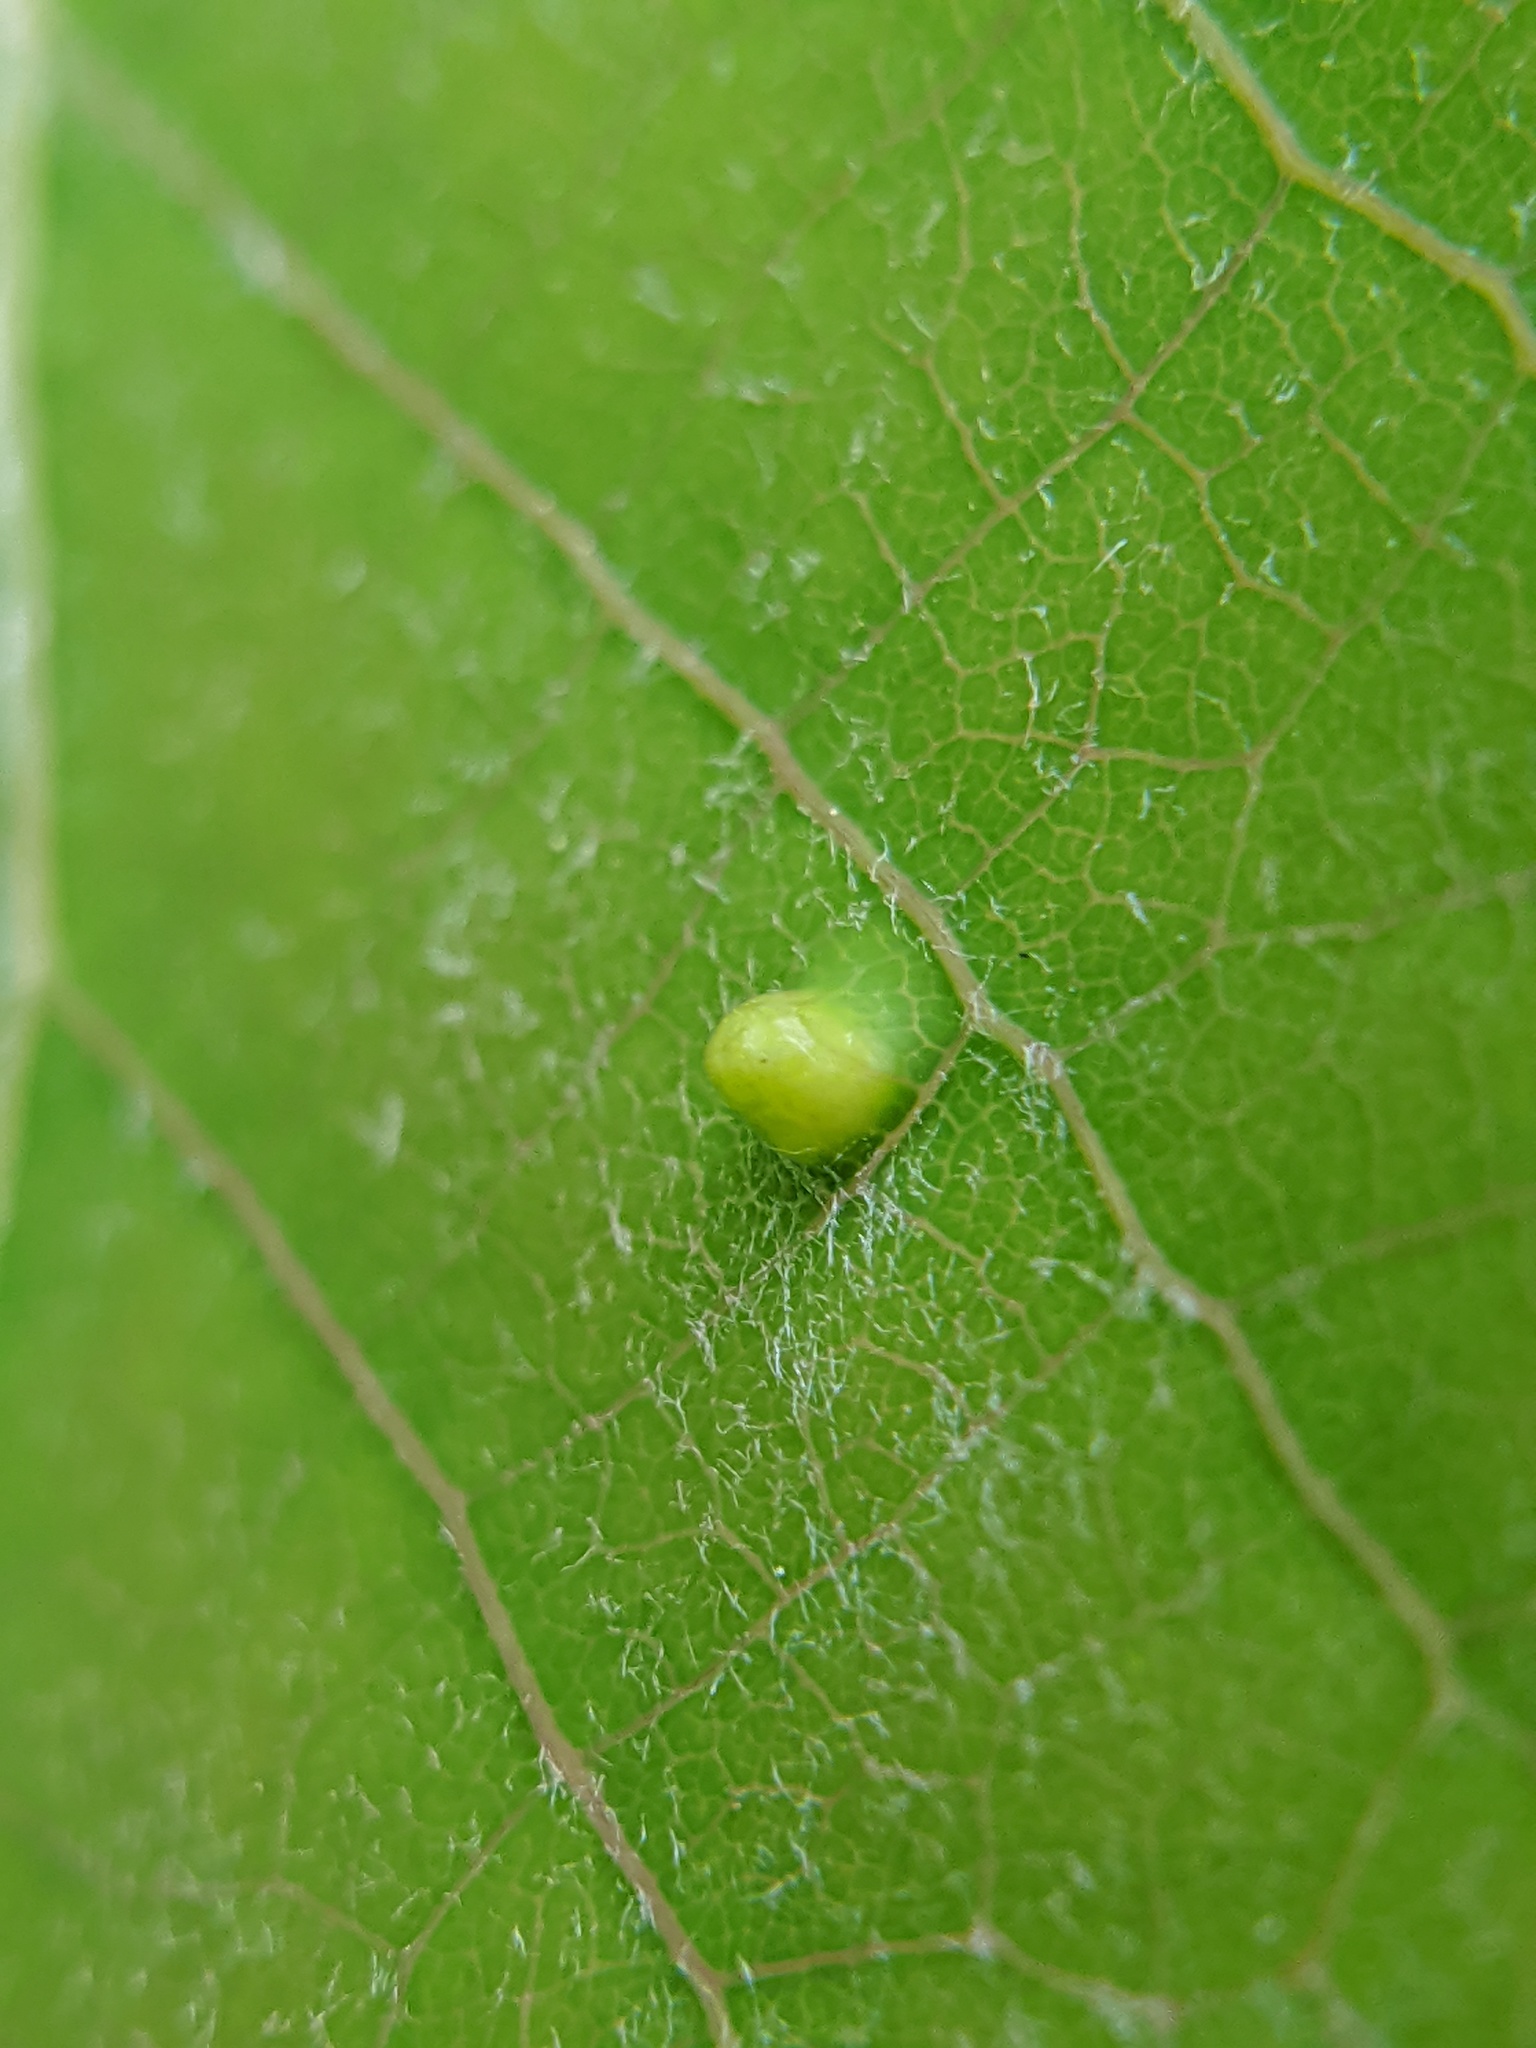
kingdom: Animalia
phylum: Arthropoda
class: Arachnida
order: Trombidiformes
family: Eriophyidae
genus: Phyllocoptes
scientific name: Phyllocoptes
